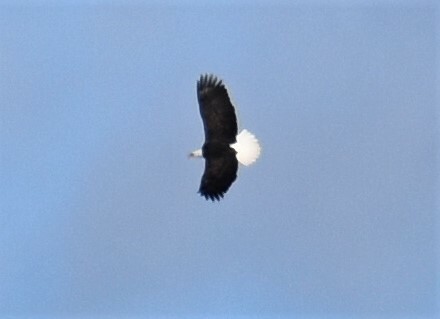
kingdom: Animalia
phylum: Chordata
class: Aves
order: Accipitriformes
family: Accipitridae
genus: Haliaeetus
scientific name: Haliaeetus leucocephalus
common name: Bald eagle
